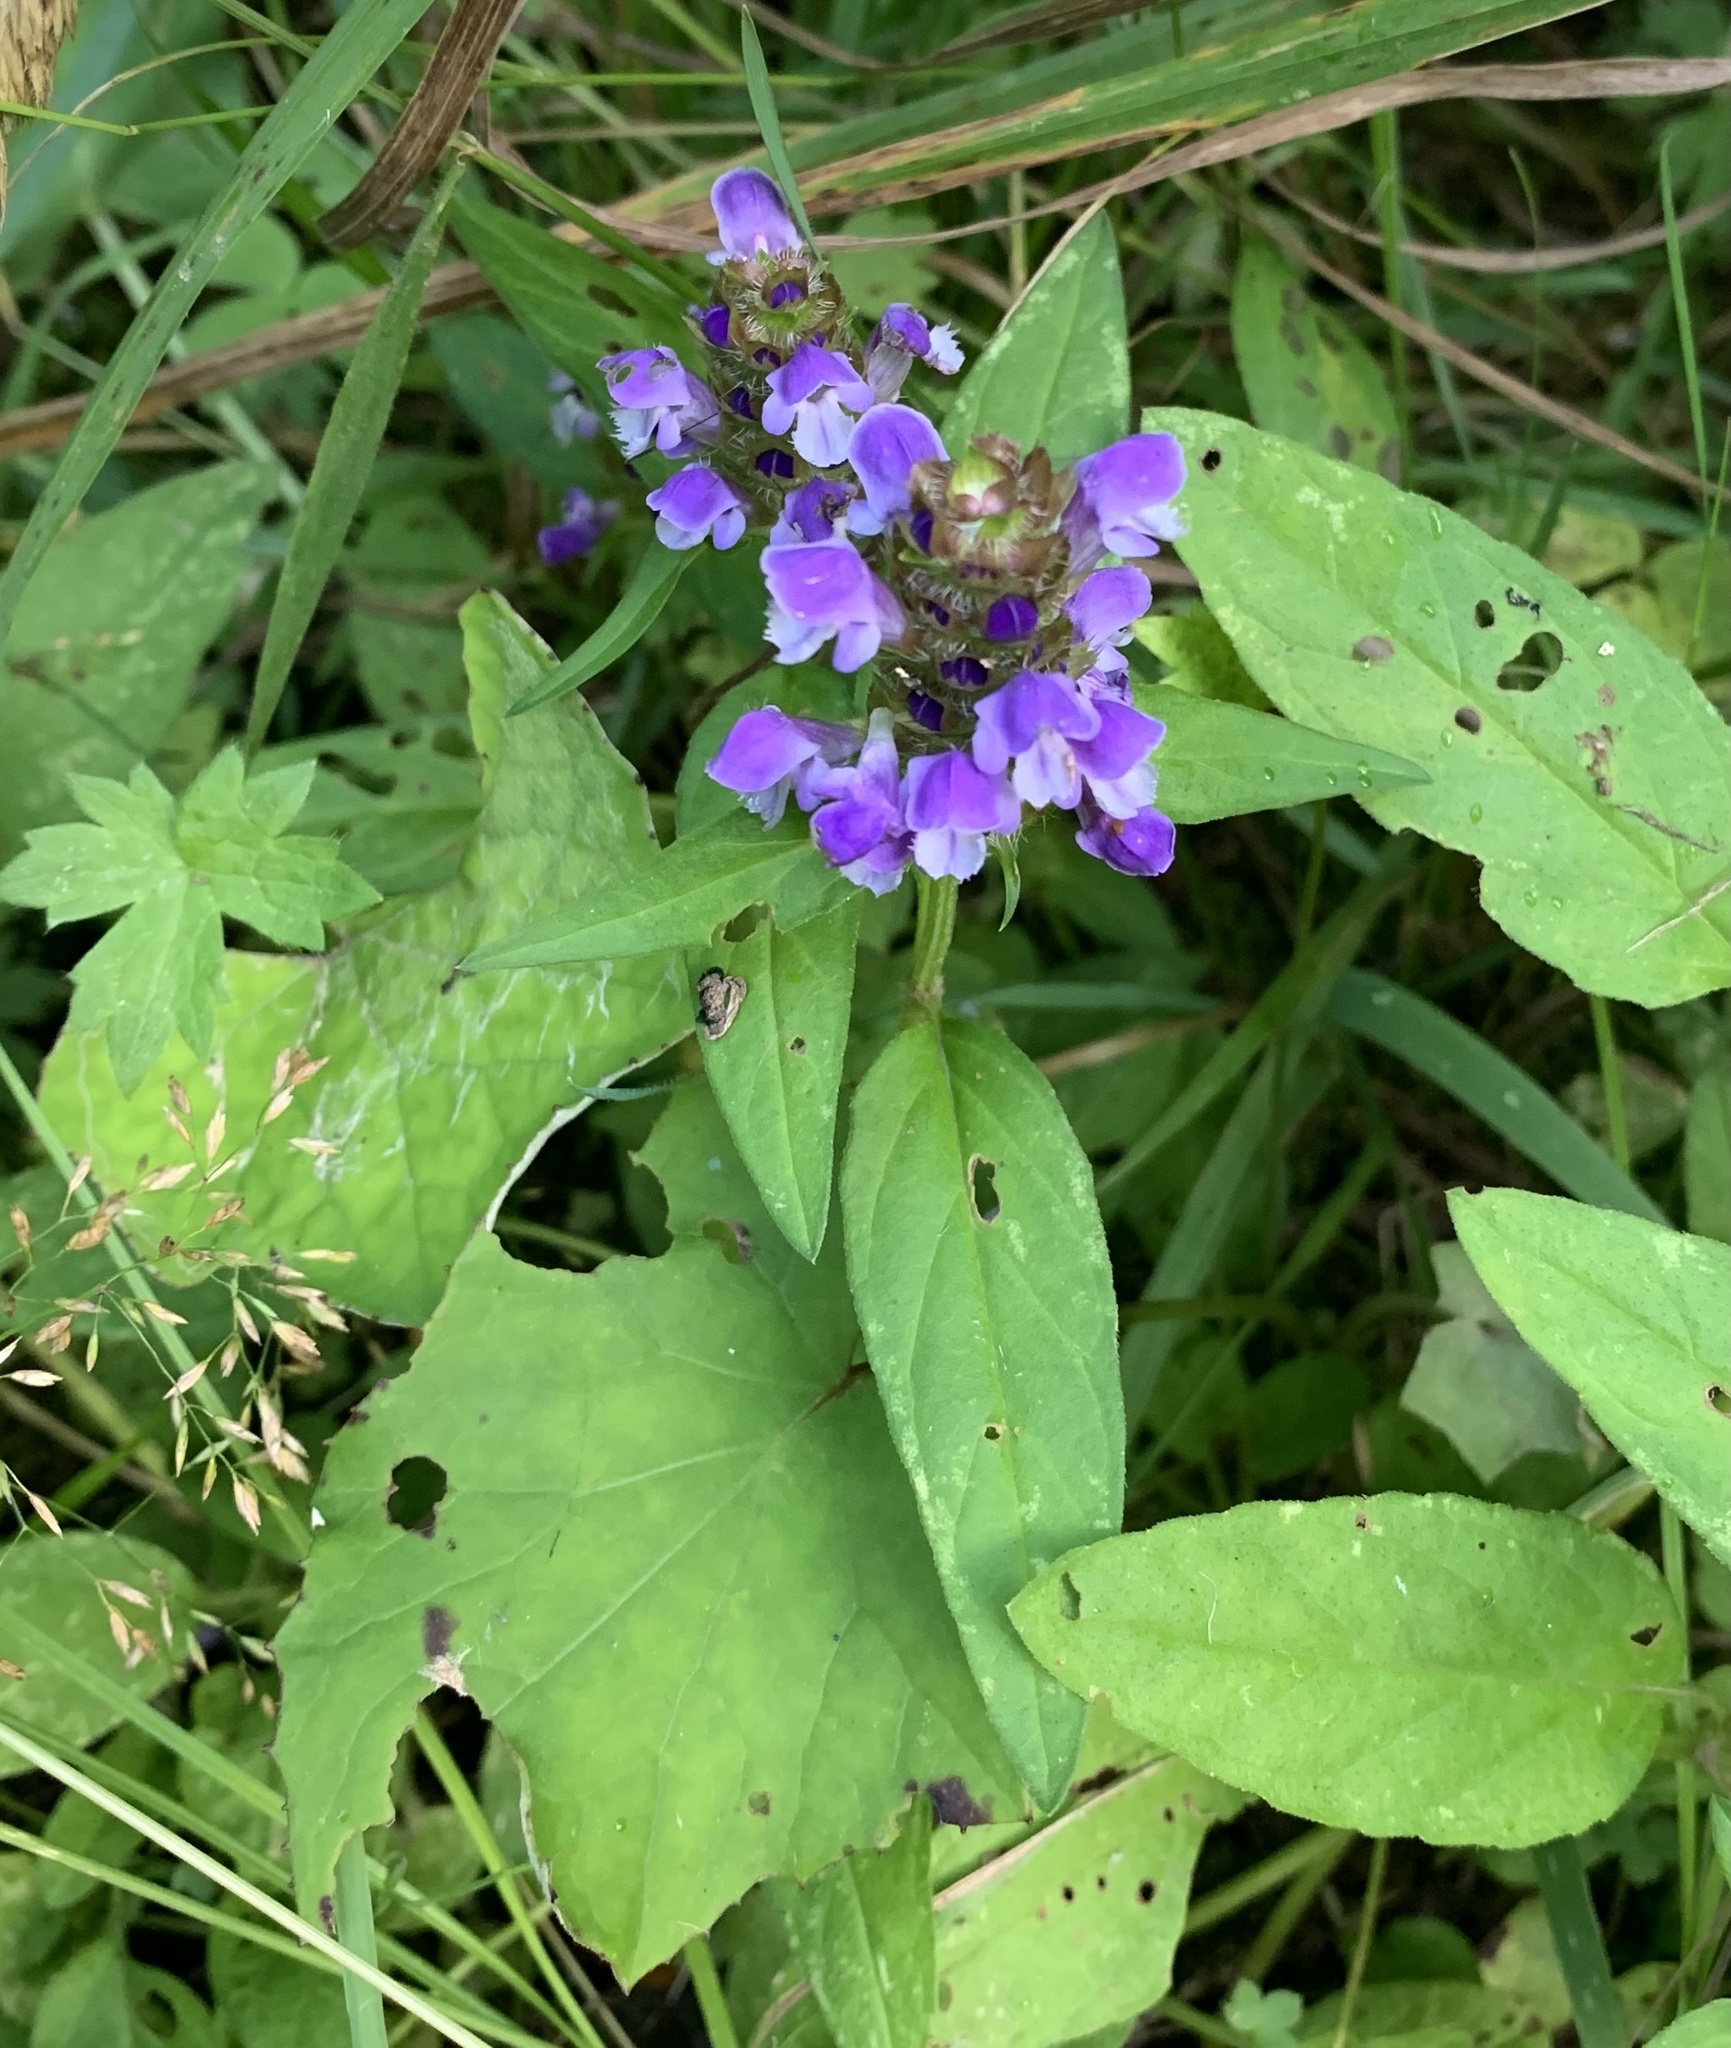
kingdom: Plantae
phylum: Tracheophyta
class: Magnoliopsida
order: Lamiales
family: Lamiaceae
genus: Prunella
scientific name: Prunella vulgaris
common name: Heal-all
